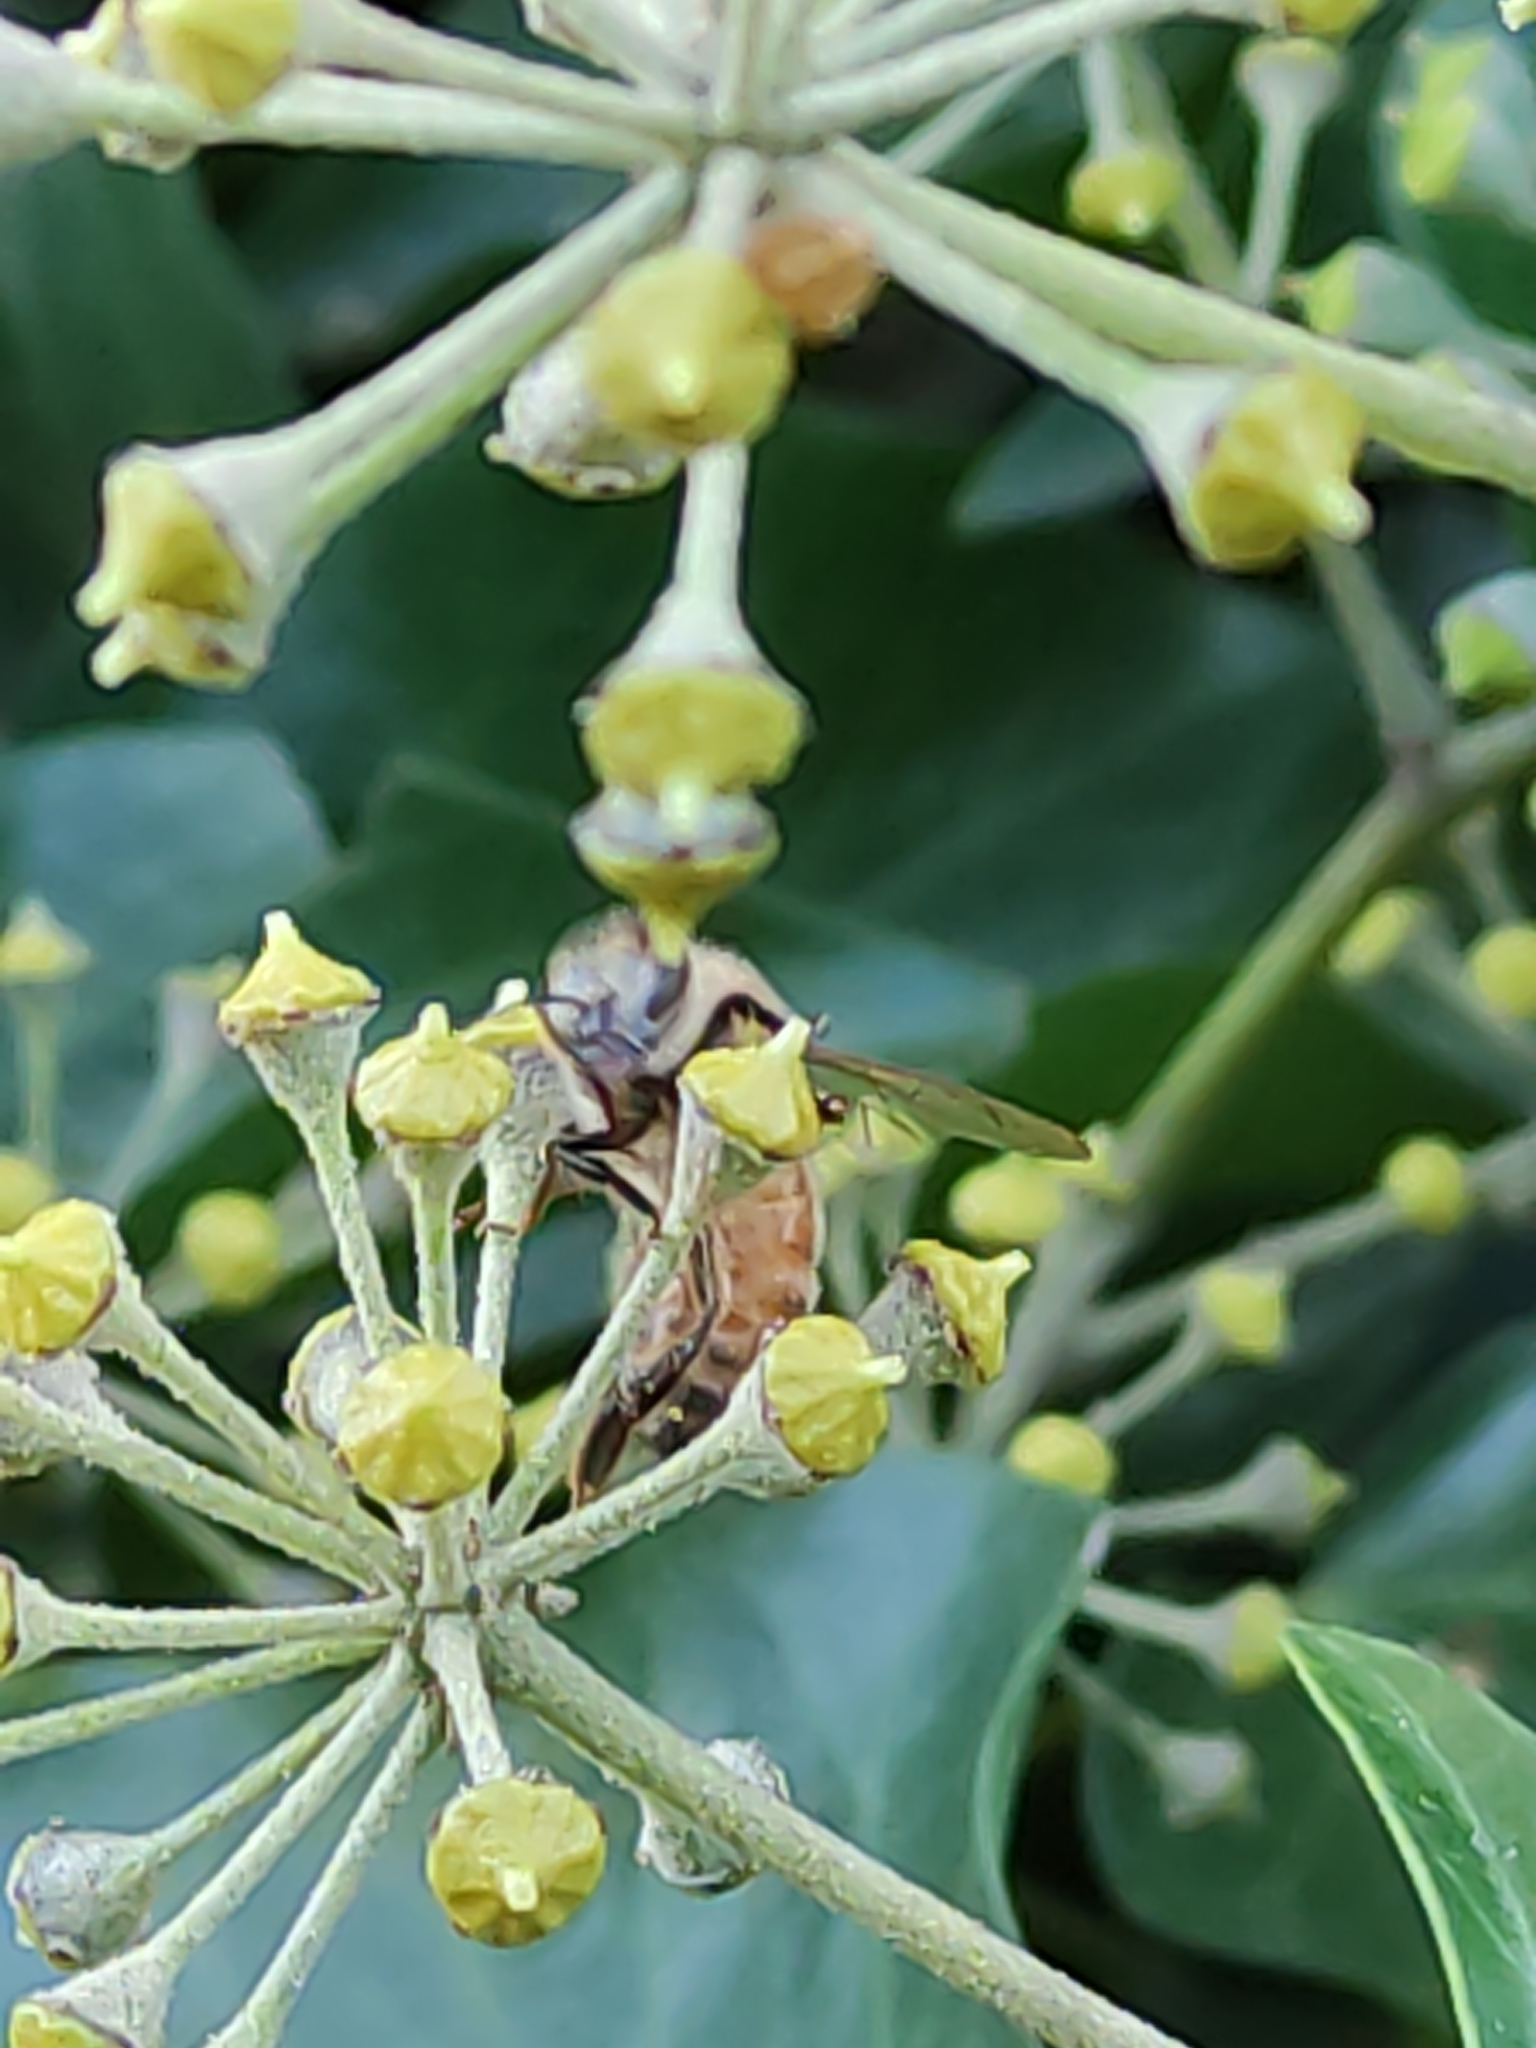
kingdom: Animalia
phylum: Arthropoda
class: Insecta
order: Hymenoptera
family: Apidae
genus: Apis
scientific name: Apis mellifera
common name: Honey bee
